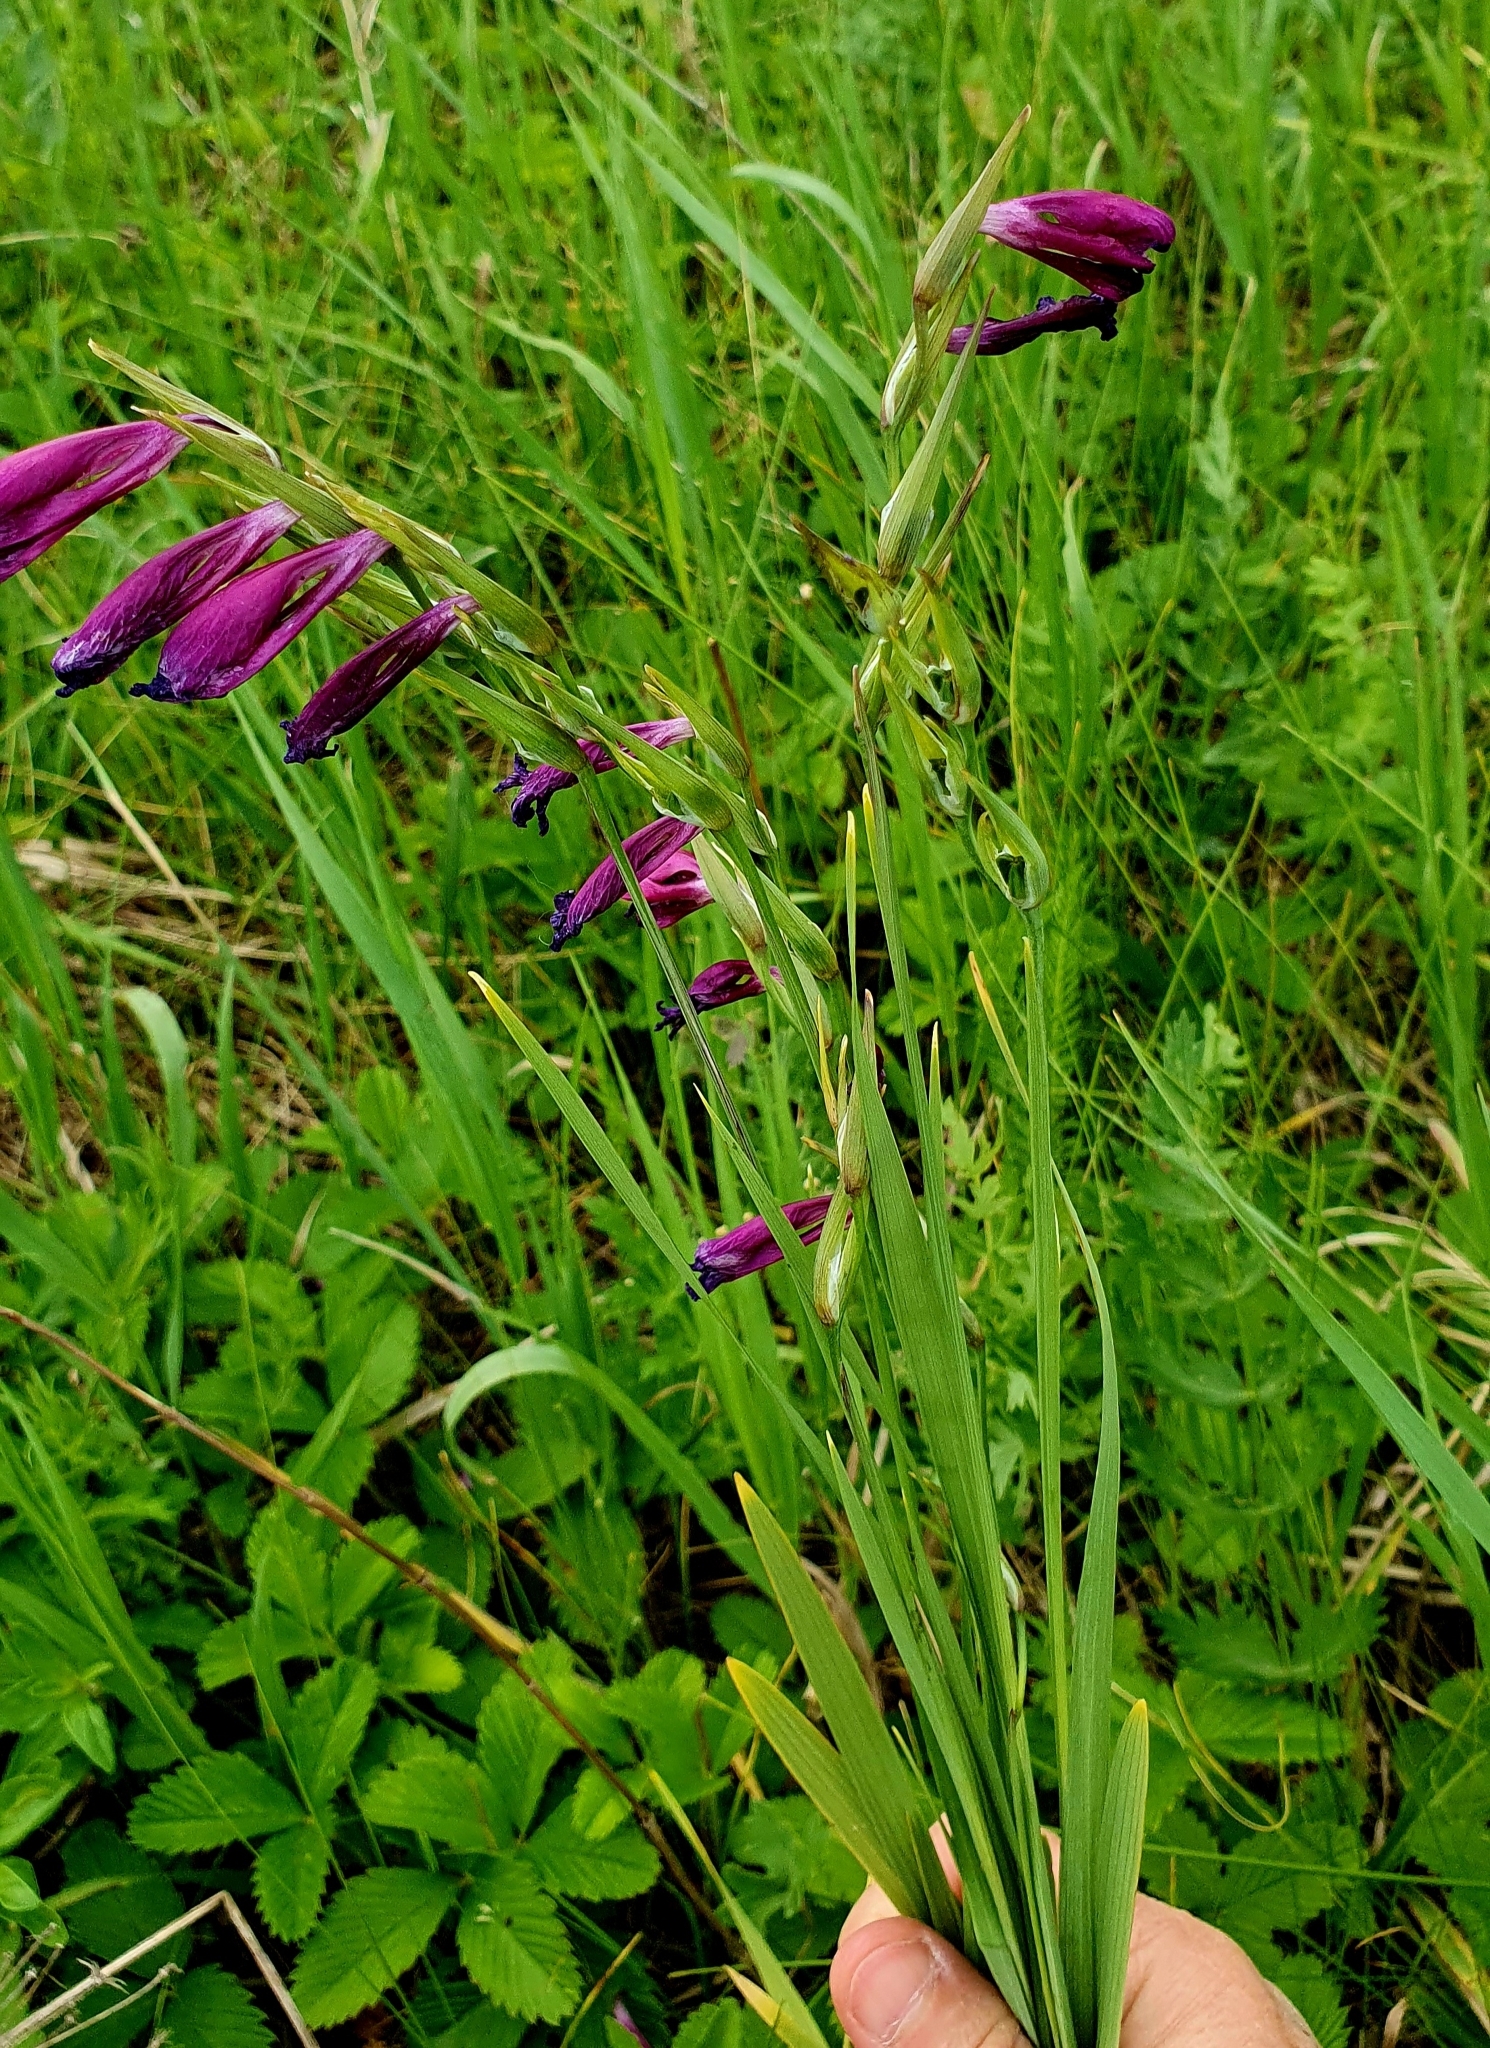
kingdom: Plantae
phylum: Tracheophyta
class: Liliopsida
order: Asparagales
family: Iridaceae
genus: Gladiolus
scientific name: Gladiolus tenuis
